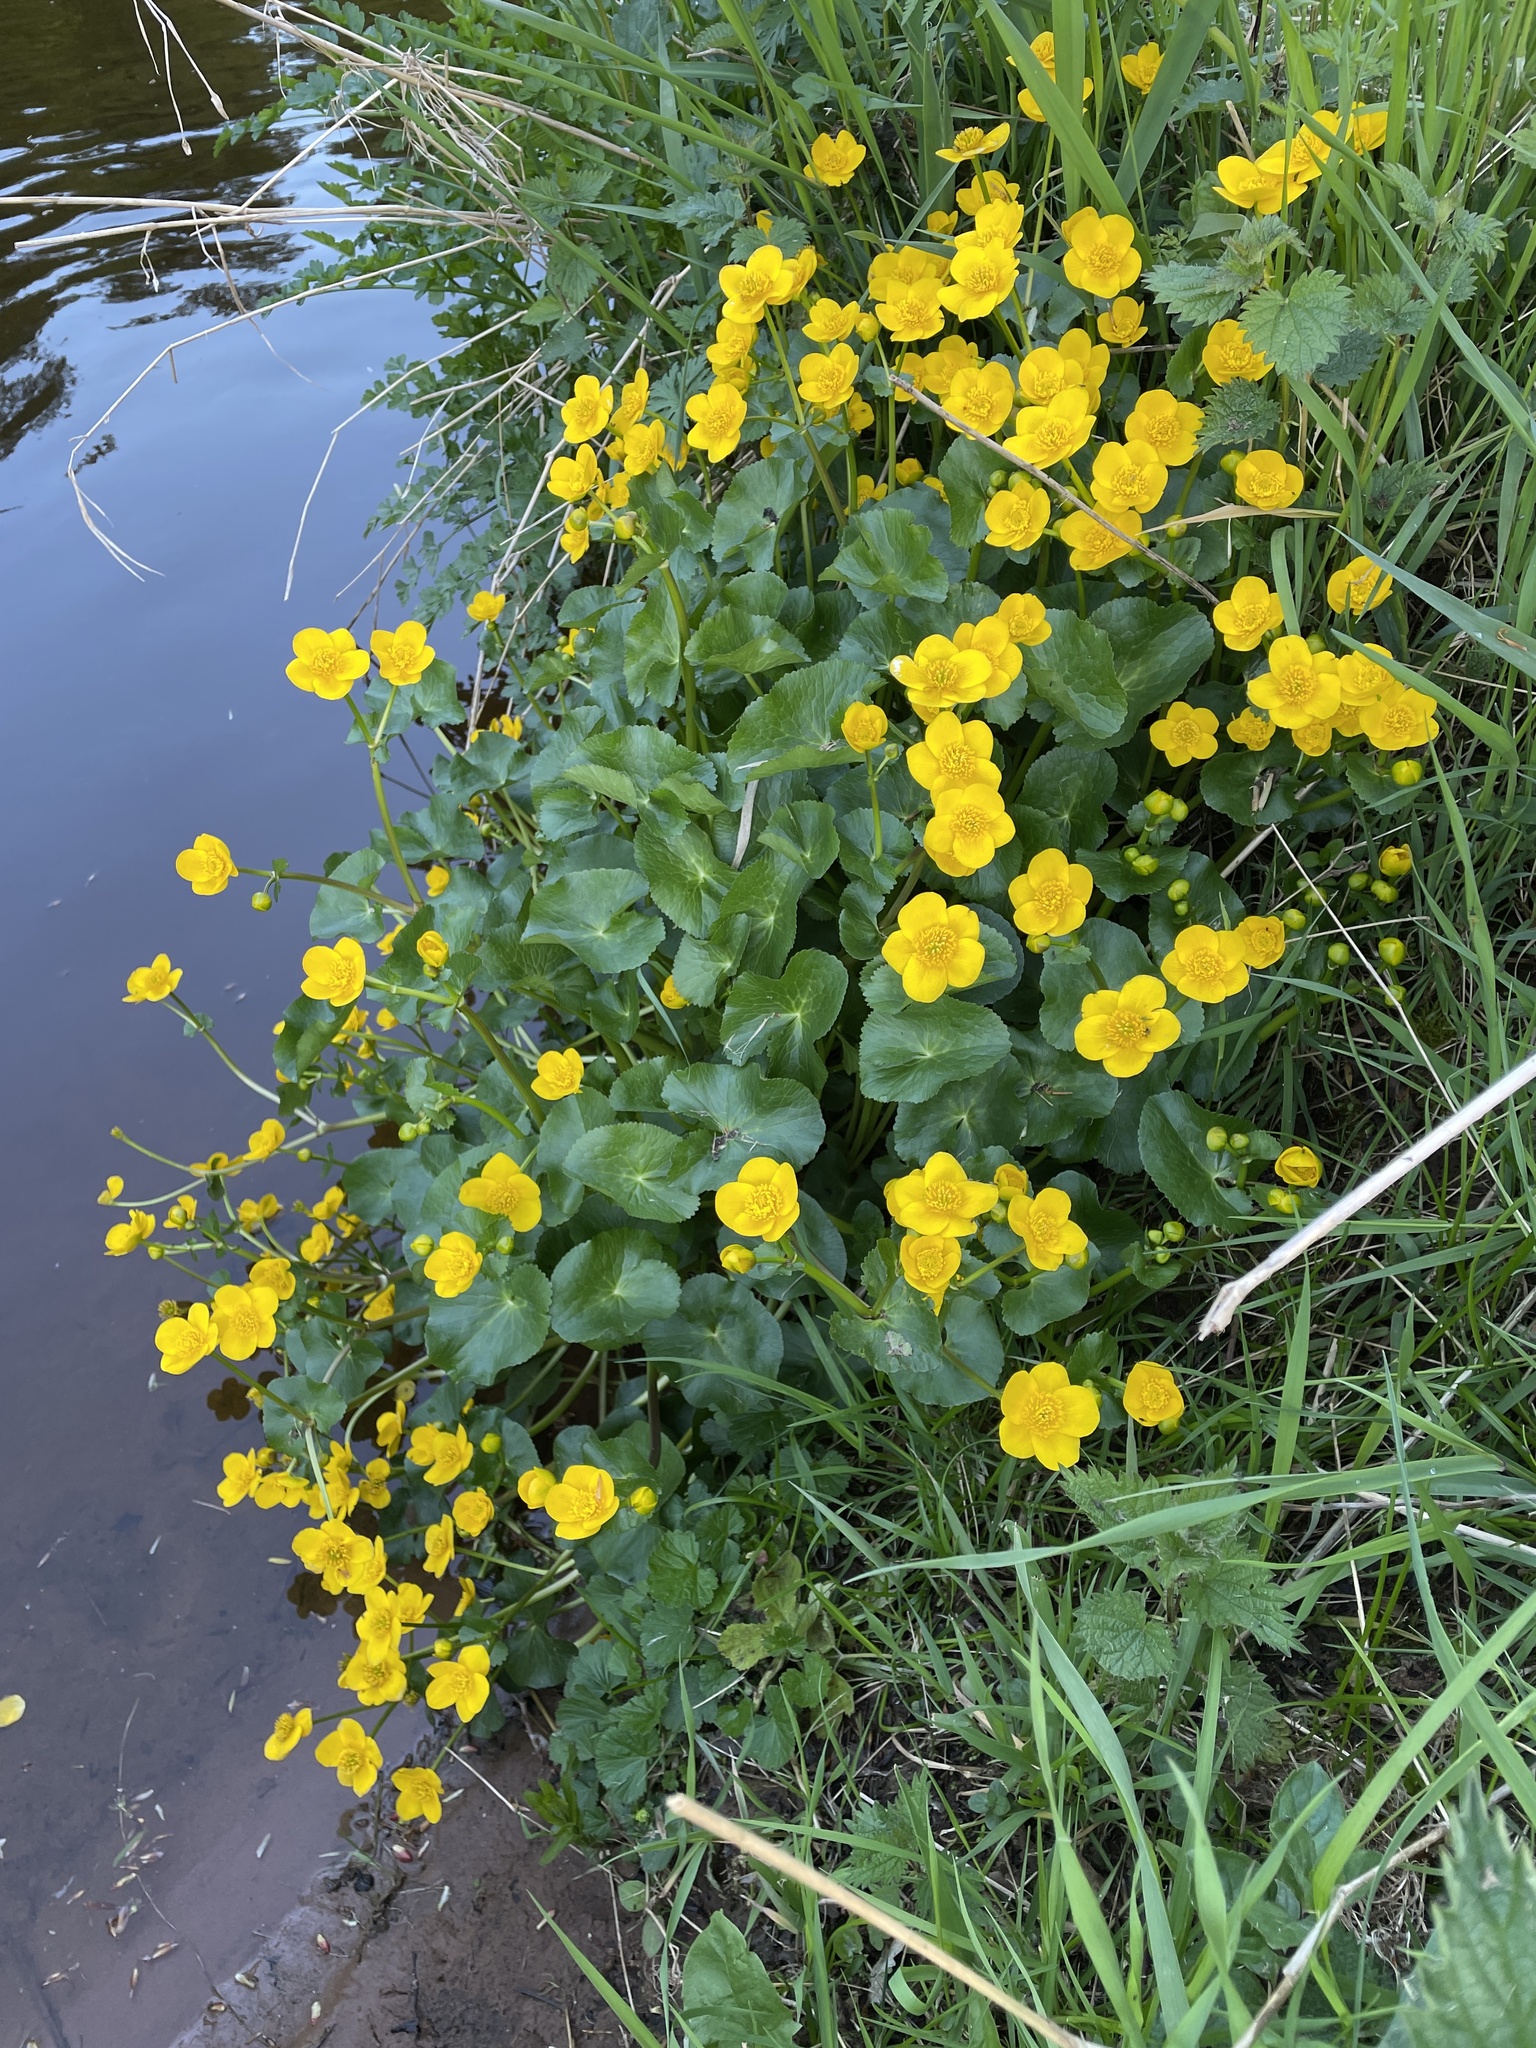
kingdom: Plantae
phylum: Tracheophyta
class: Magnoliopsida
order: Ranunculales
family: Ranunculaceae
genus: Caltha
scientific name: Caltha palustris
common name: Marsh marigold
